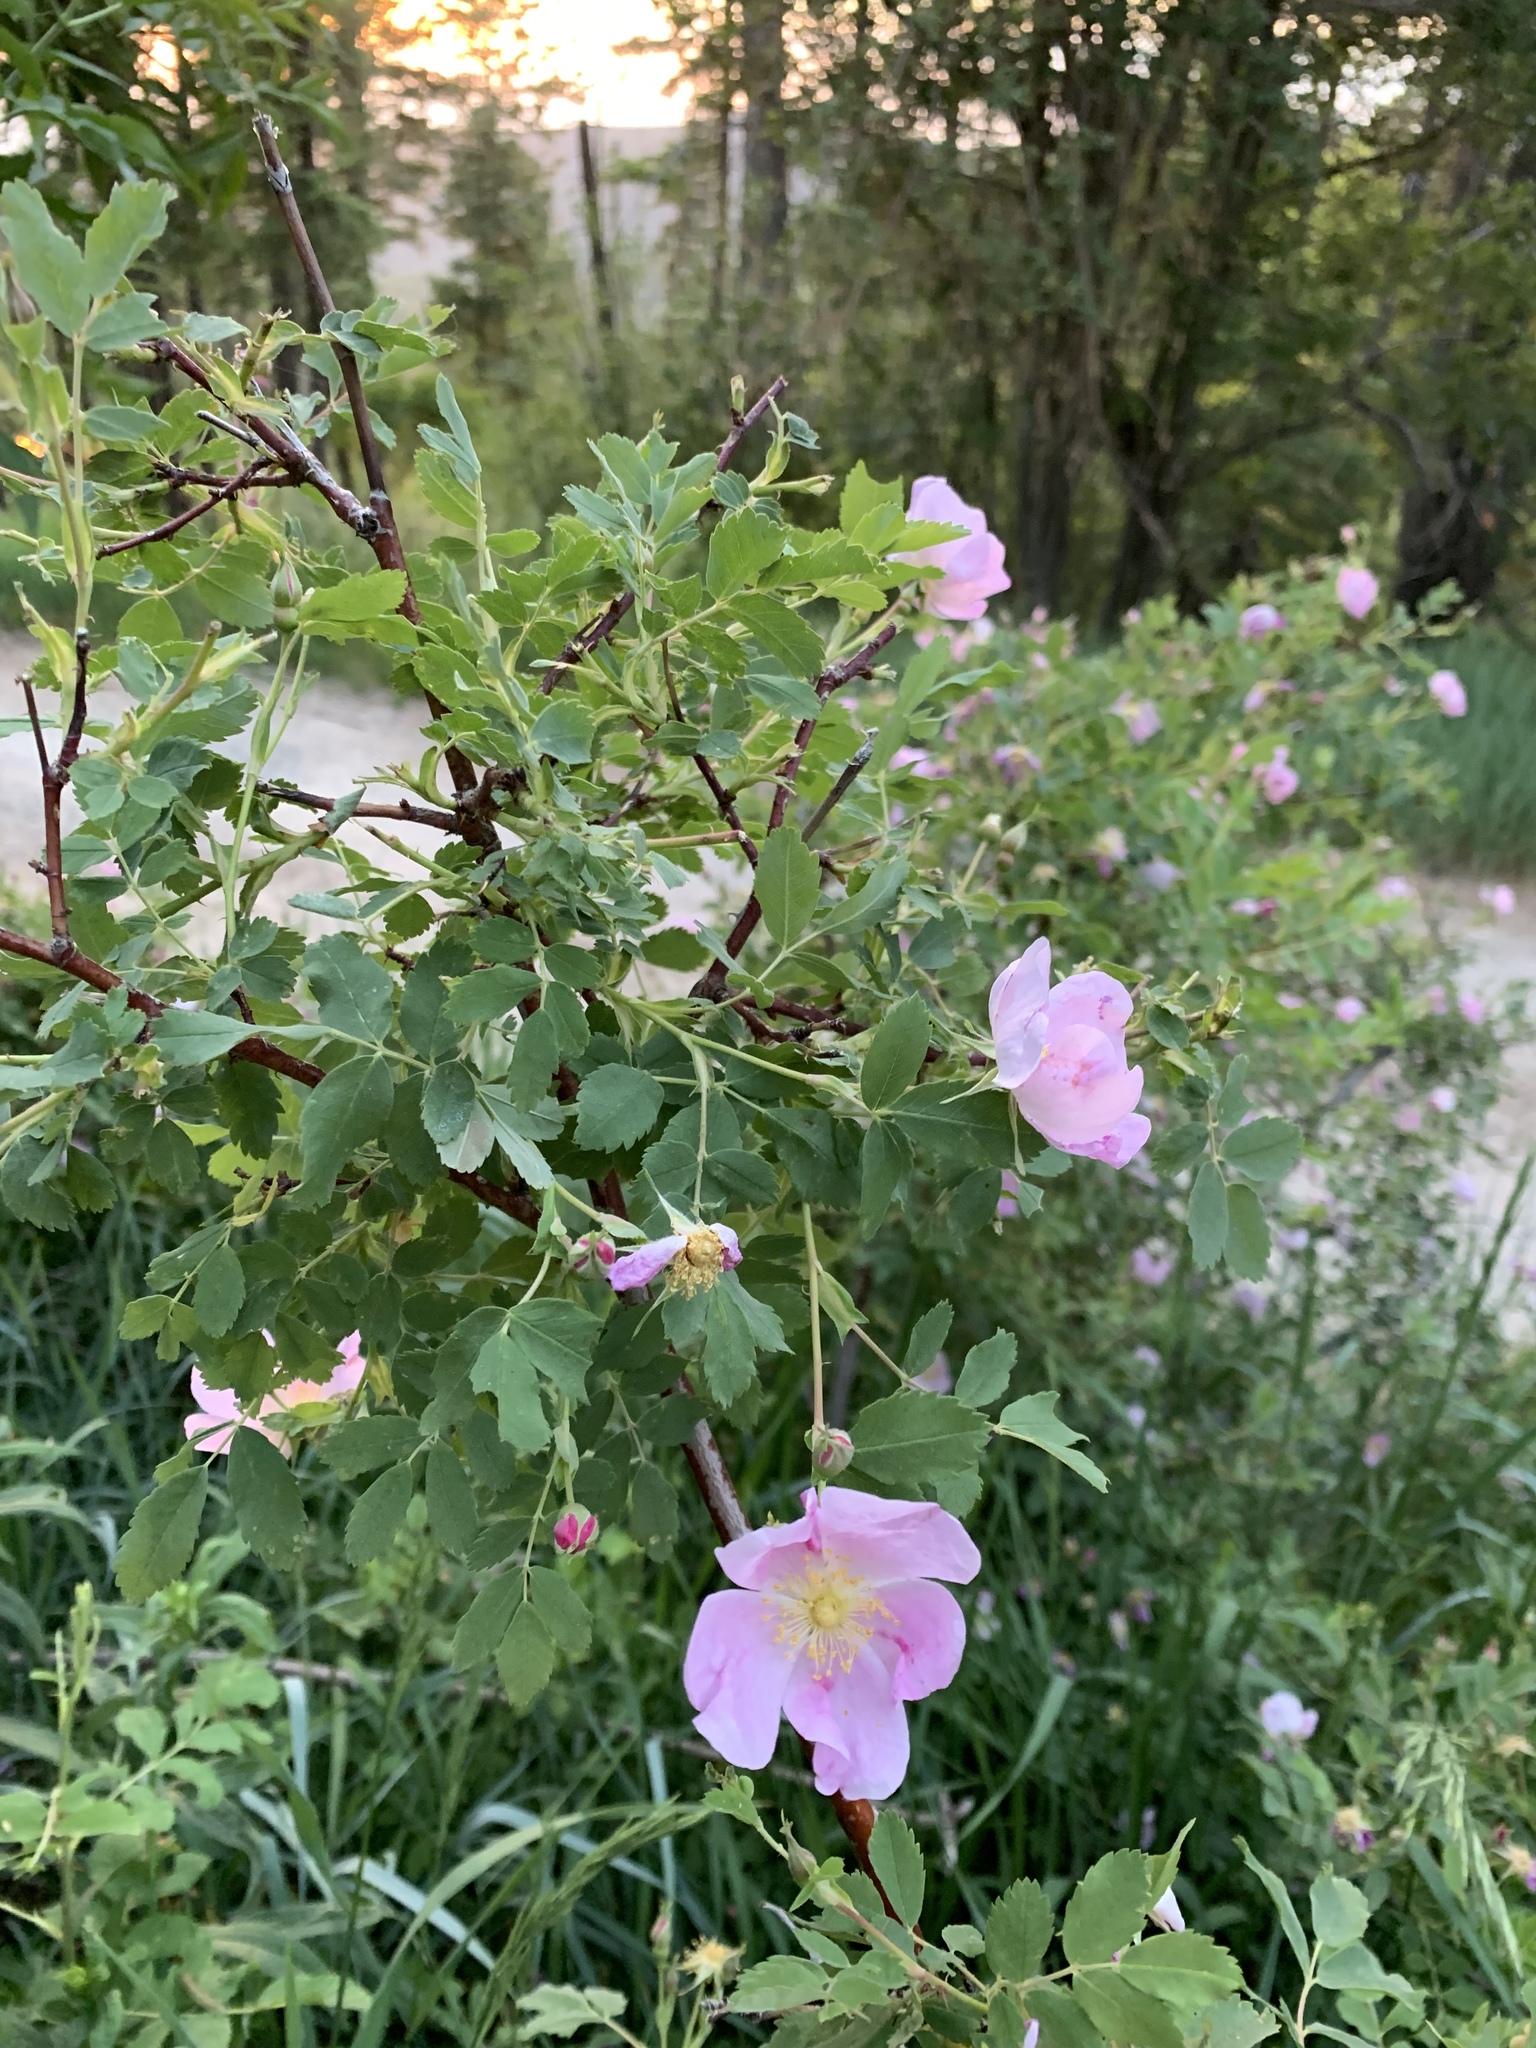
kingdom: Plantae
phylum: Tracheophyta
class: Magnoliopsida
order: Rosales
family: Rosaceae
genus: Rosa
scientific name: Rosa woodsii
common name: Woods's rose
